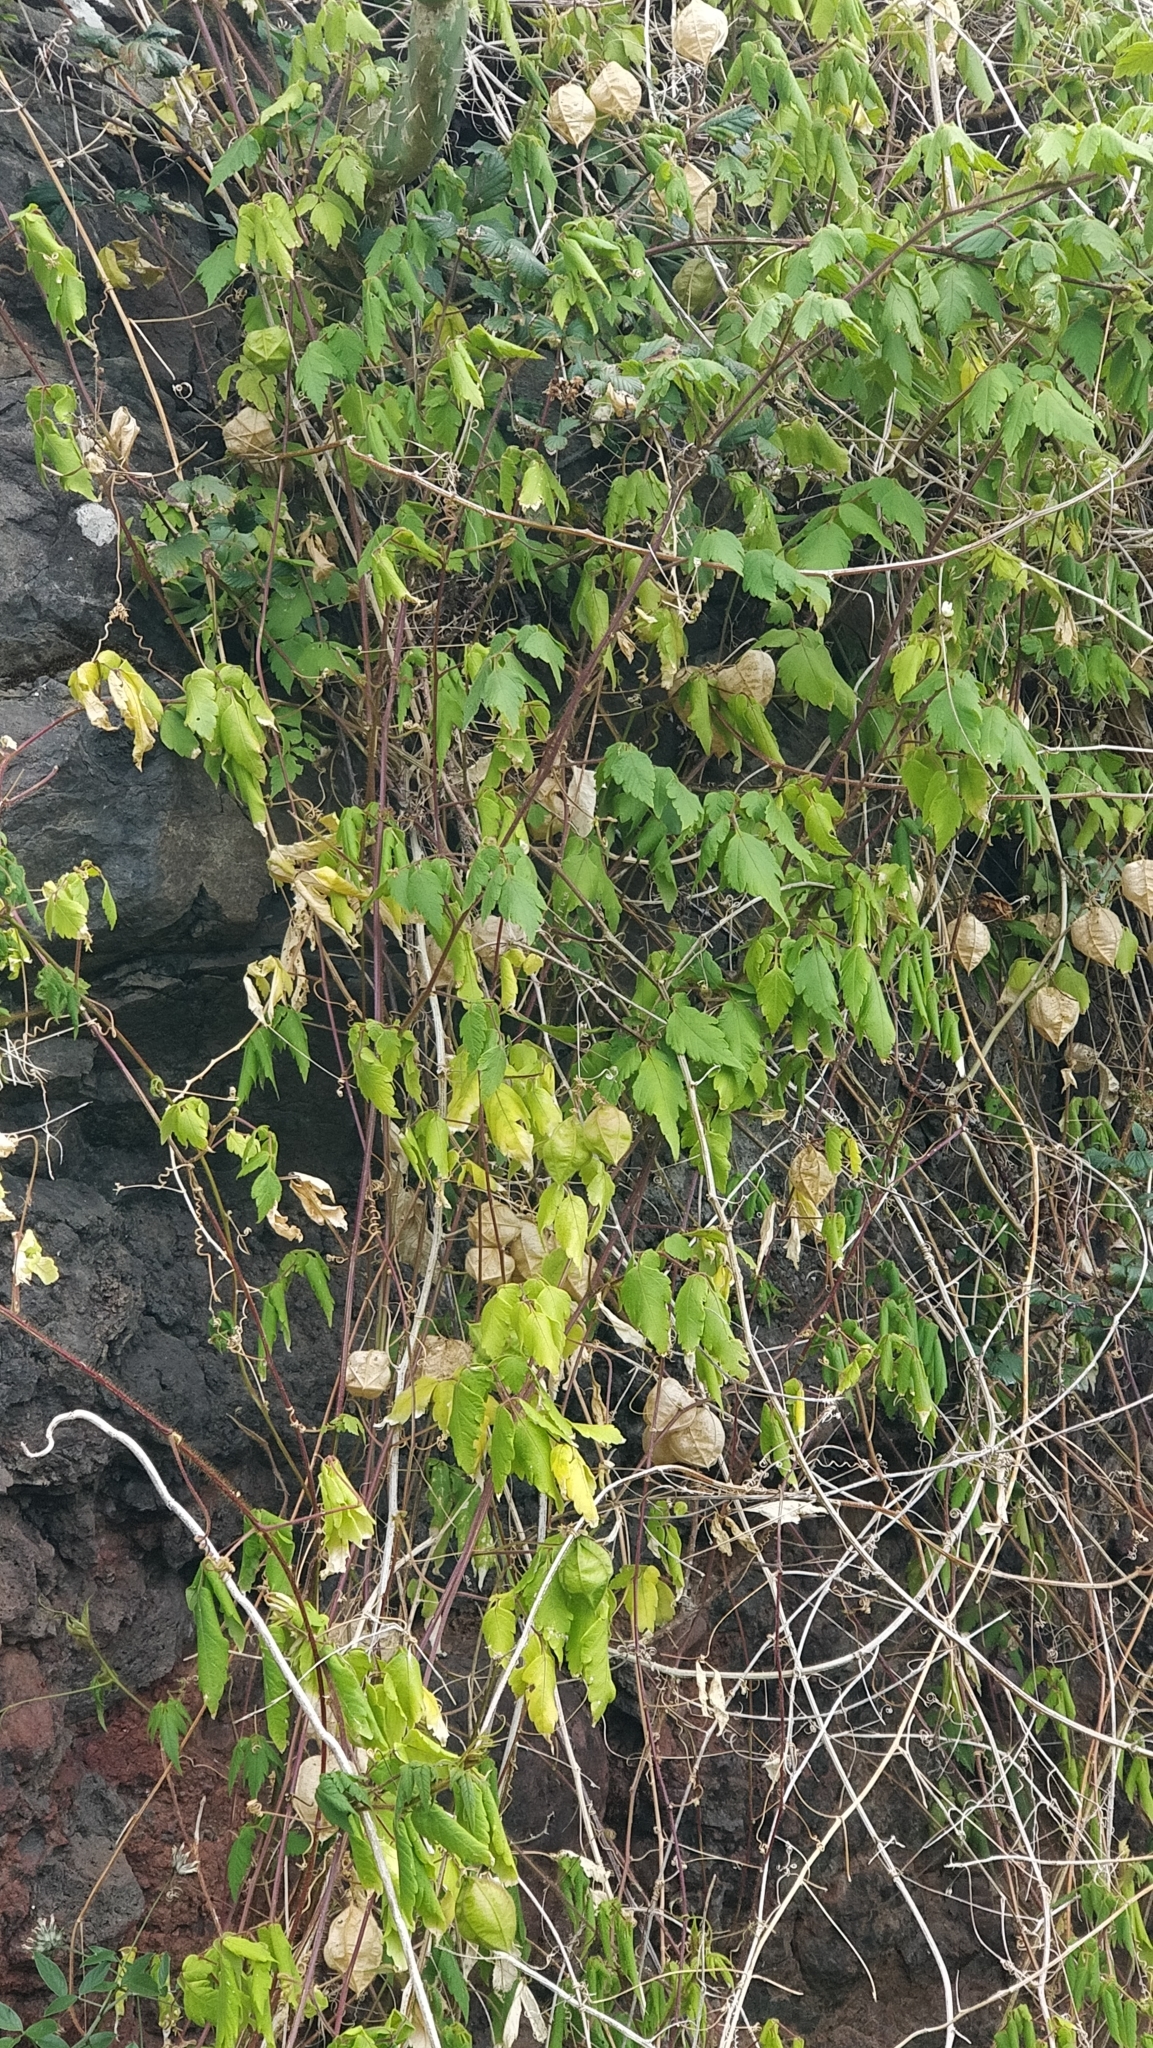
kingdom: Plantae
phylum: Tracheophyta
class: Magnoliopsida
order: Sapindales
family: Sapindaceae
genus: Cardiospermum
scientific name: Cardiospermum grandiflorum
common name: Balloon vine
